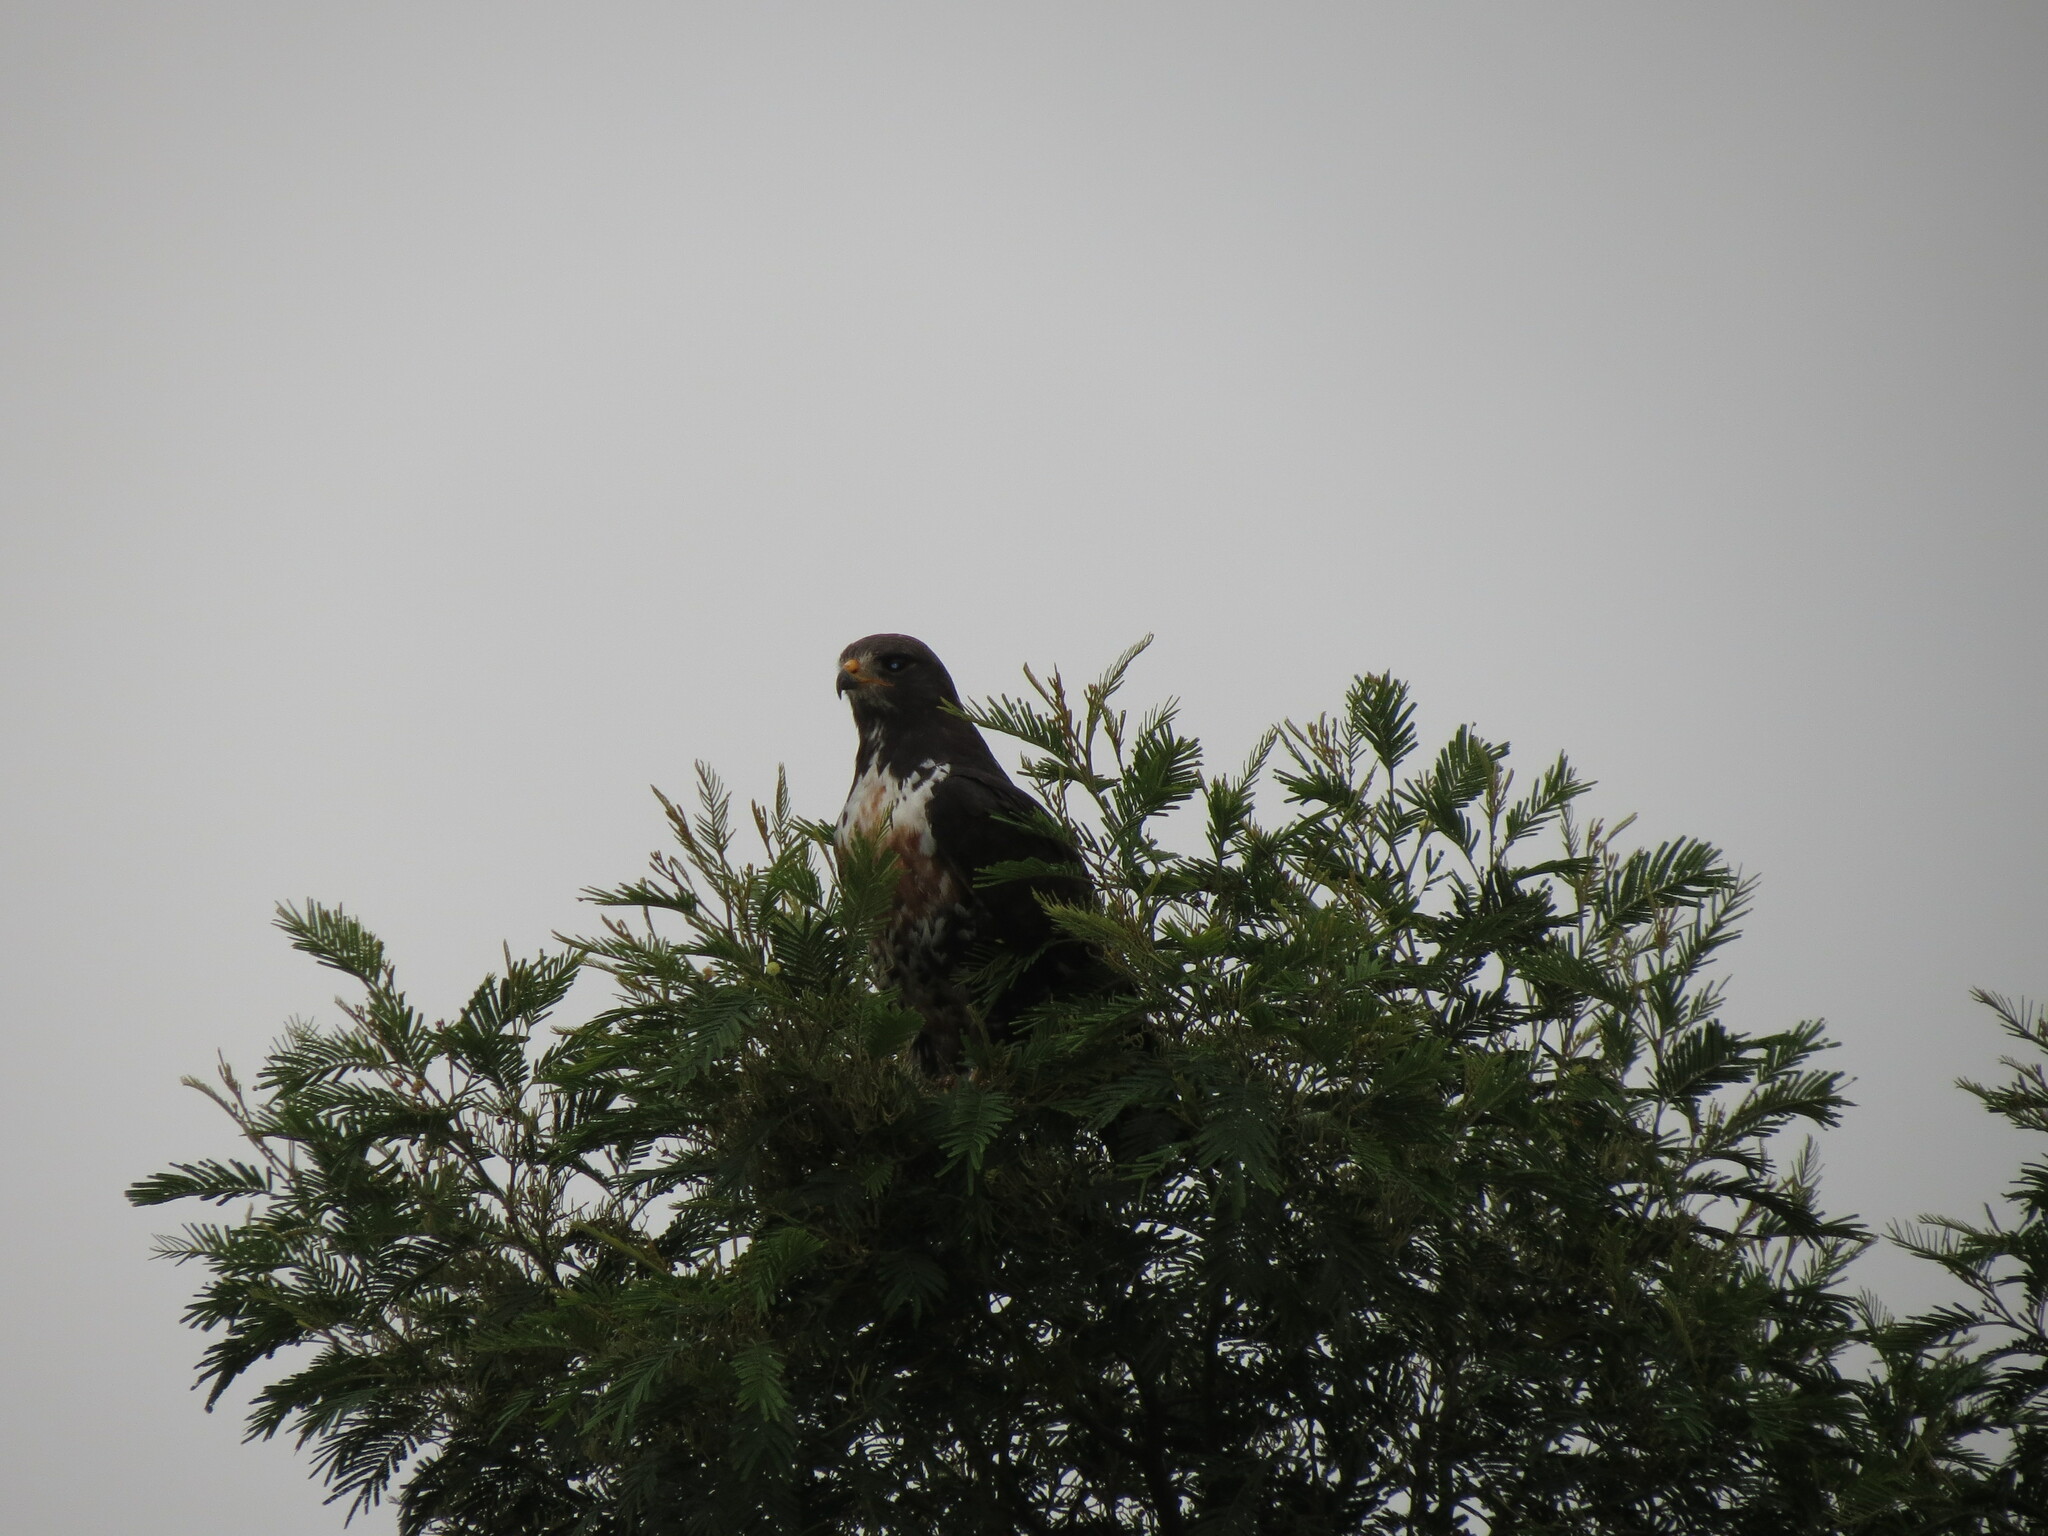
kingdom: Animalia
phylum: Chordata
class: Aves
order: Accipitriformes
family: Accipitridae
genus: Buteo
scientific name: Buteo rufofuscus
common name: Jackal buzzard
